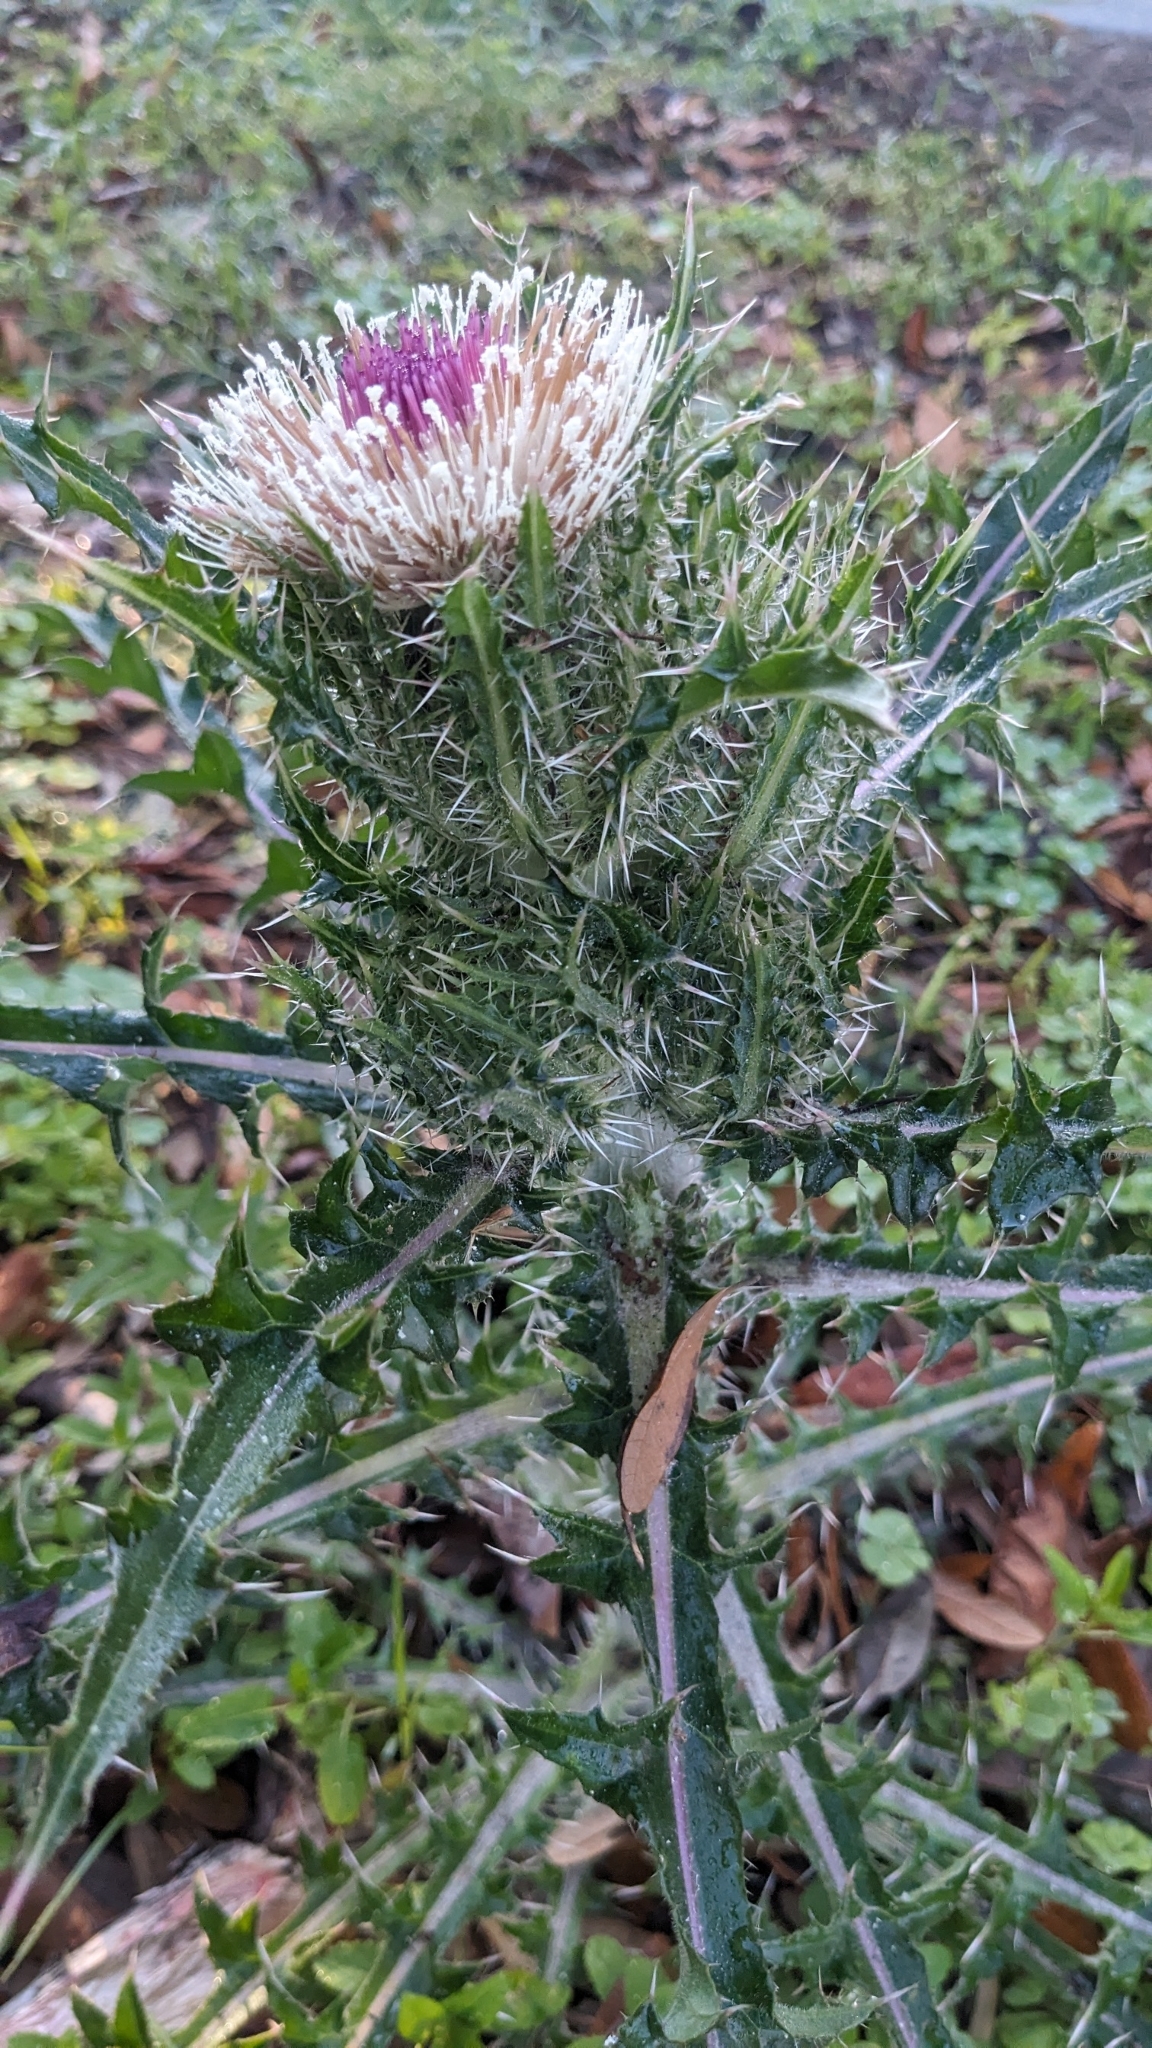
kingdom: Plantae
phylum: Tracheophyta
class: Magnoliopsida
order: Asterales
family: Asteraceae
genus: Cirsium
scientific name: Cirsium horridulum
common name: Bristly thistle
